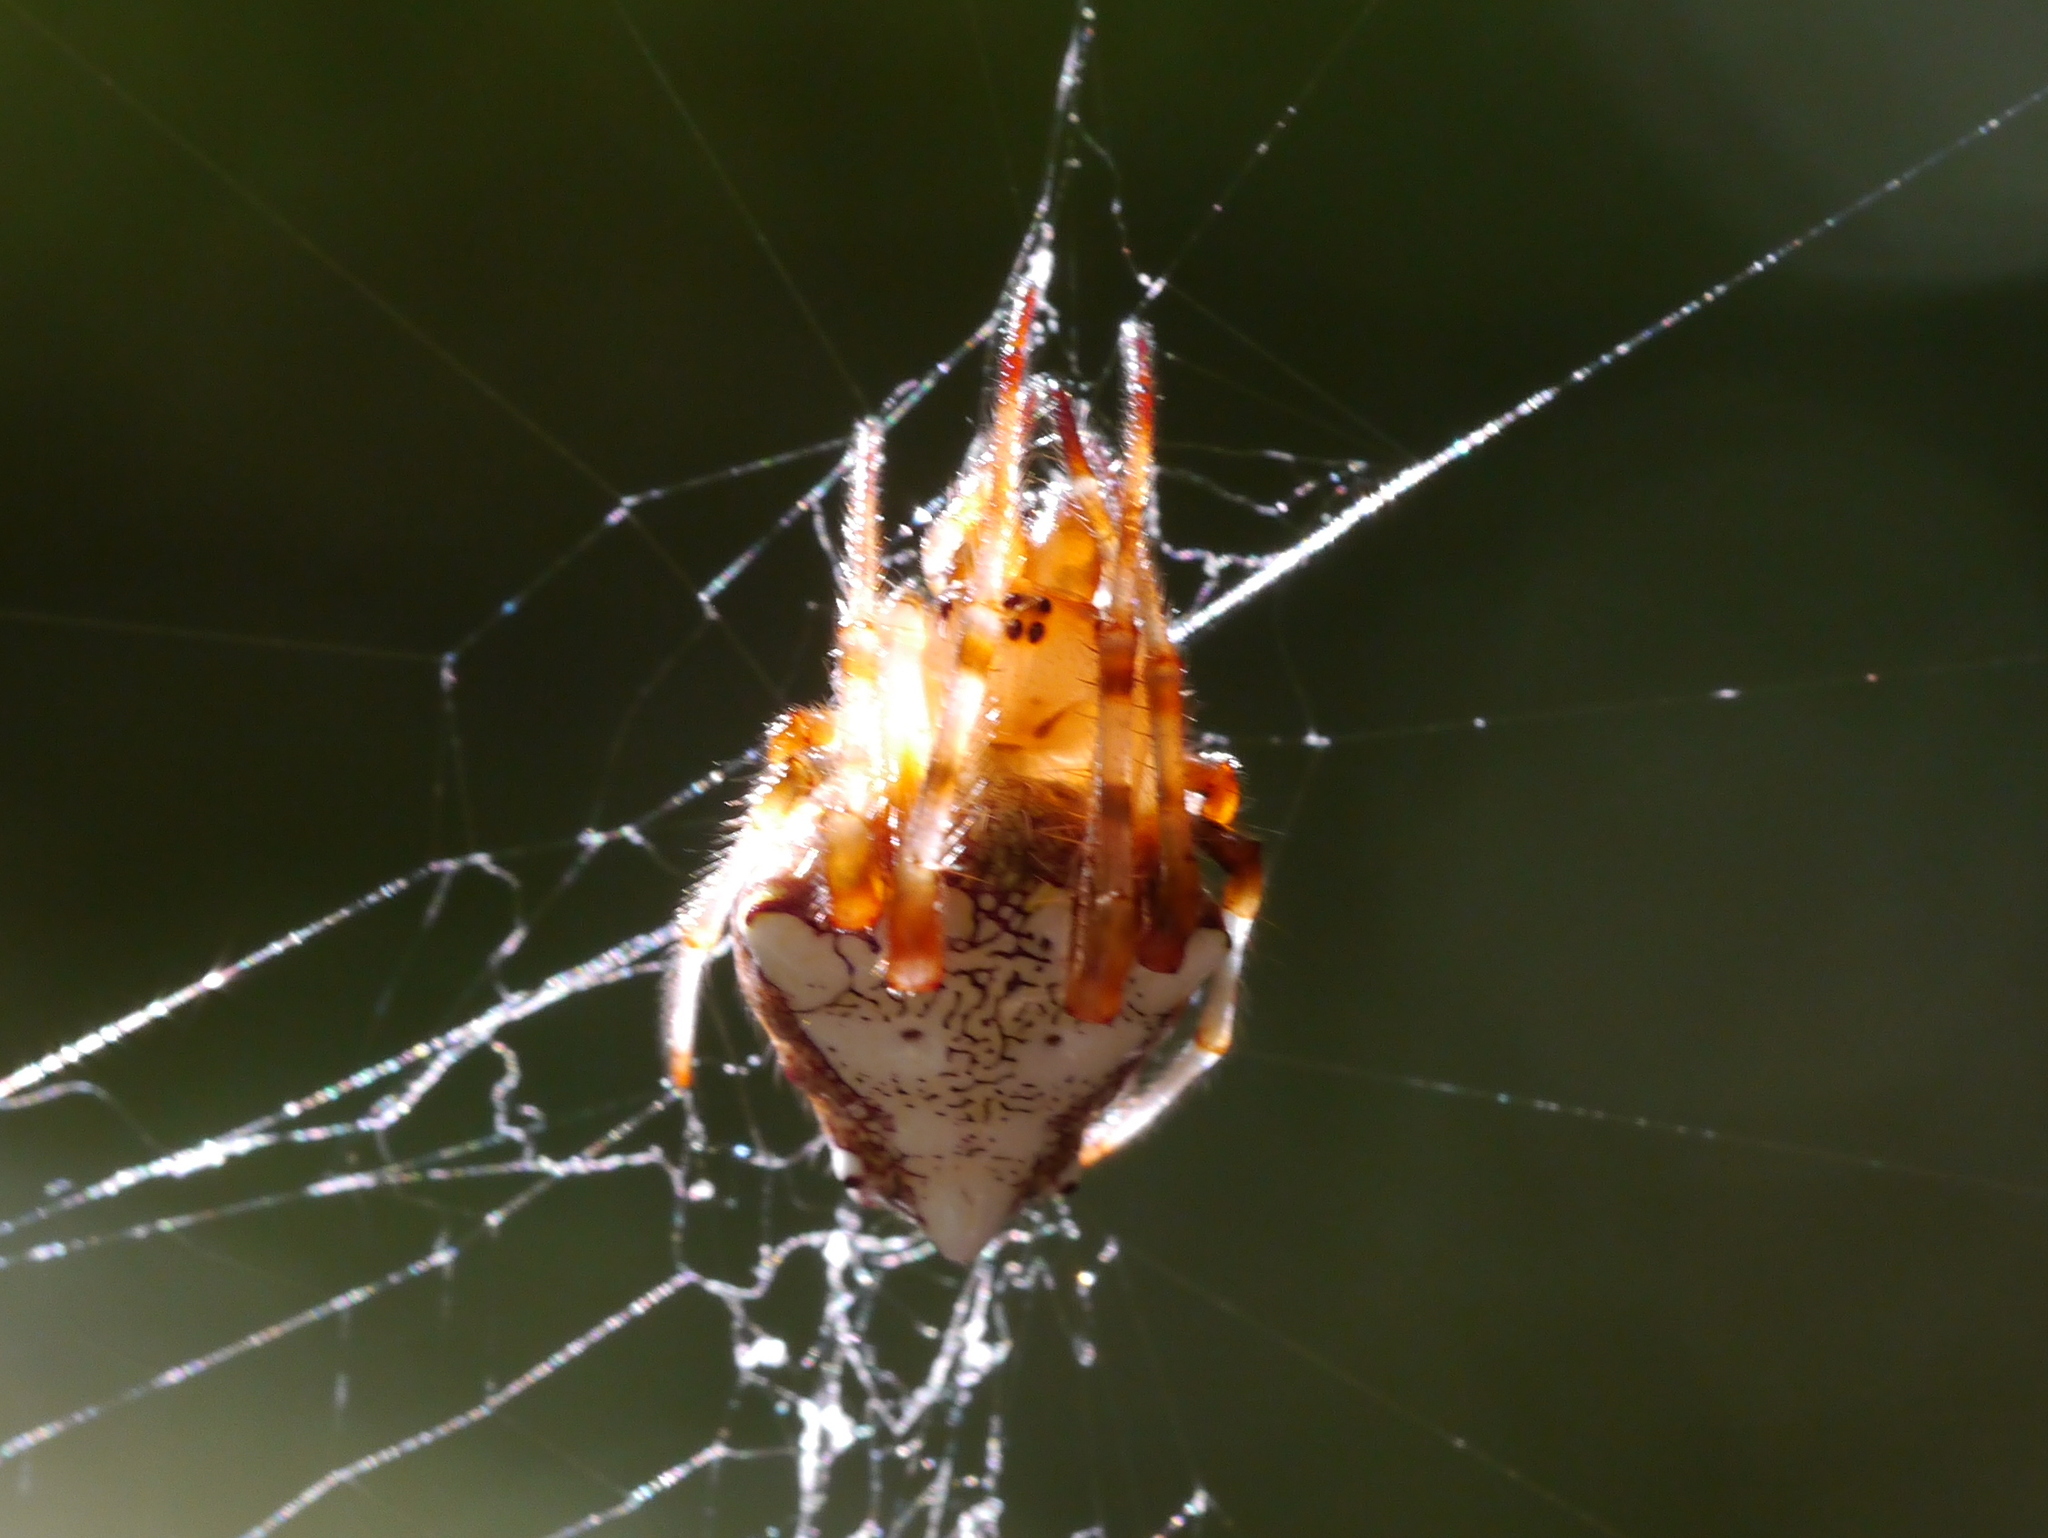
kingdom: Animalia
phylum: Arthropoda
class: Arachnida
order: Araneae
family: Araneidae
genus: Verrucosa
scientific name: Verrucosa arenata
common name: Orb weavers
